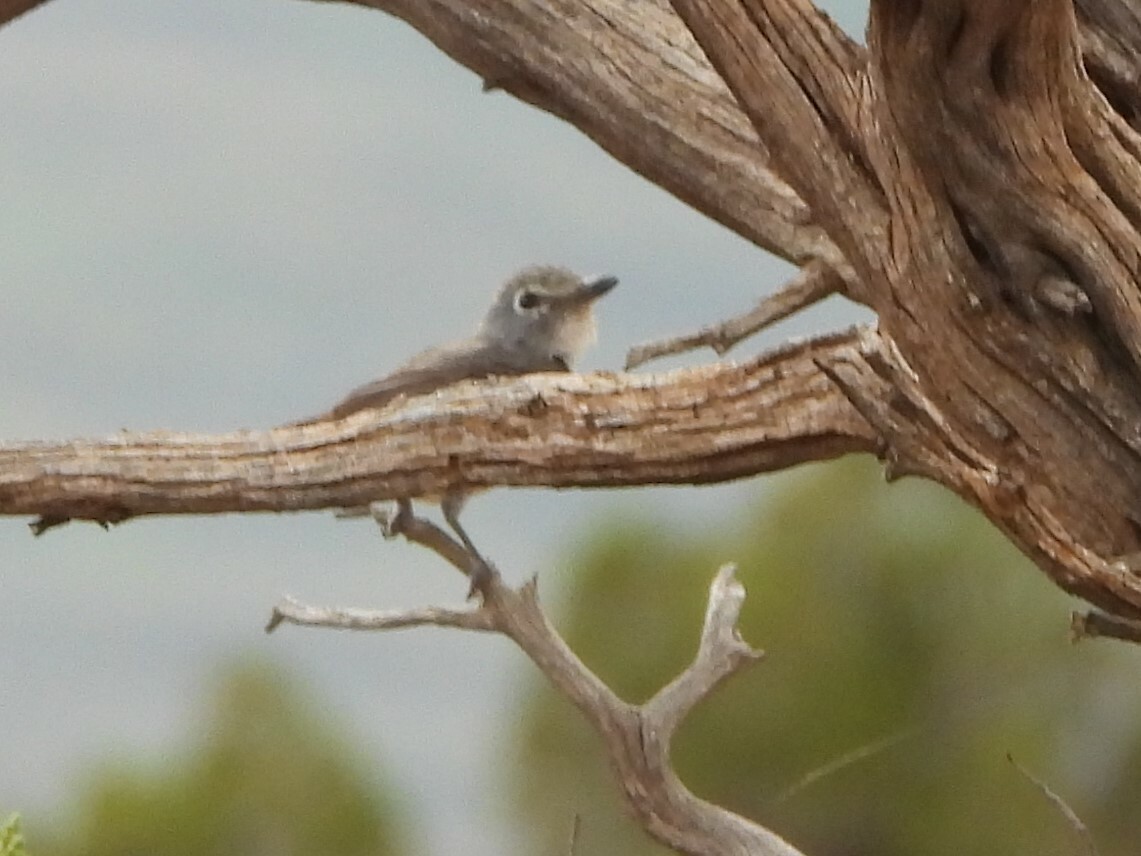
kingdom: Animalia
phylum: Chordata
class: Aves
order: Passeriformes
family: Vireonidae
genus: Vireo
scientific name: Vireo plumbeus
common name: Plumbeous vireo
